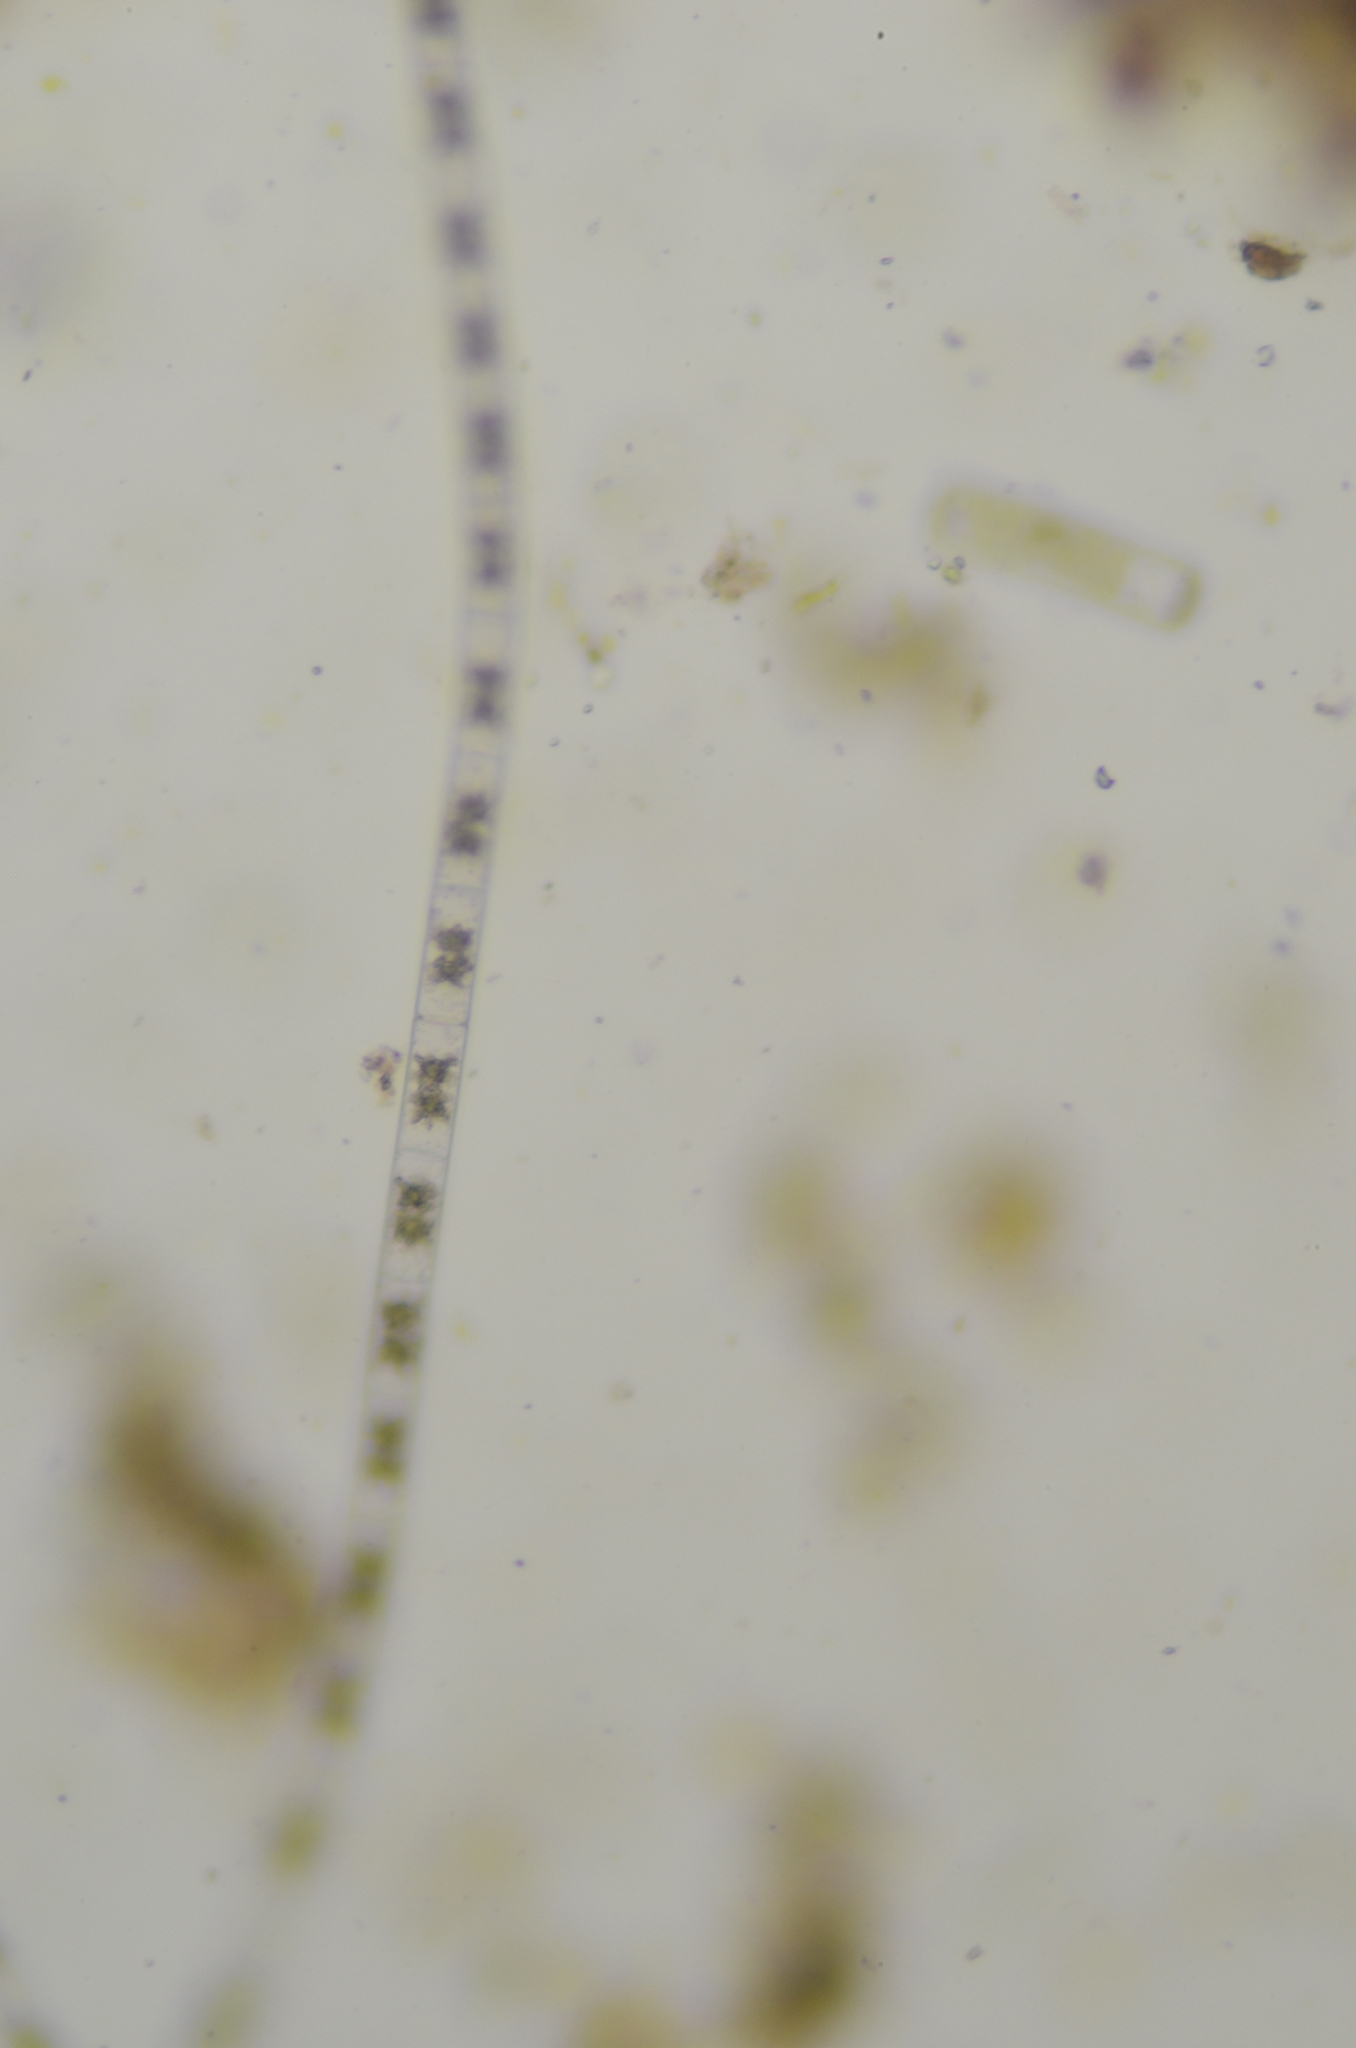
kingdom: Plantae
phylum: Charophyta
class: Zygnematophyceae
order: Zygnematales
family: Zygnemataceae
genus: Zygnema
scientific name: Zygnema
